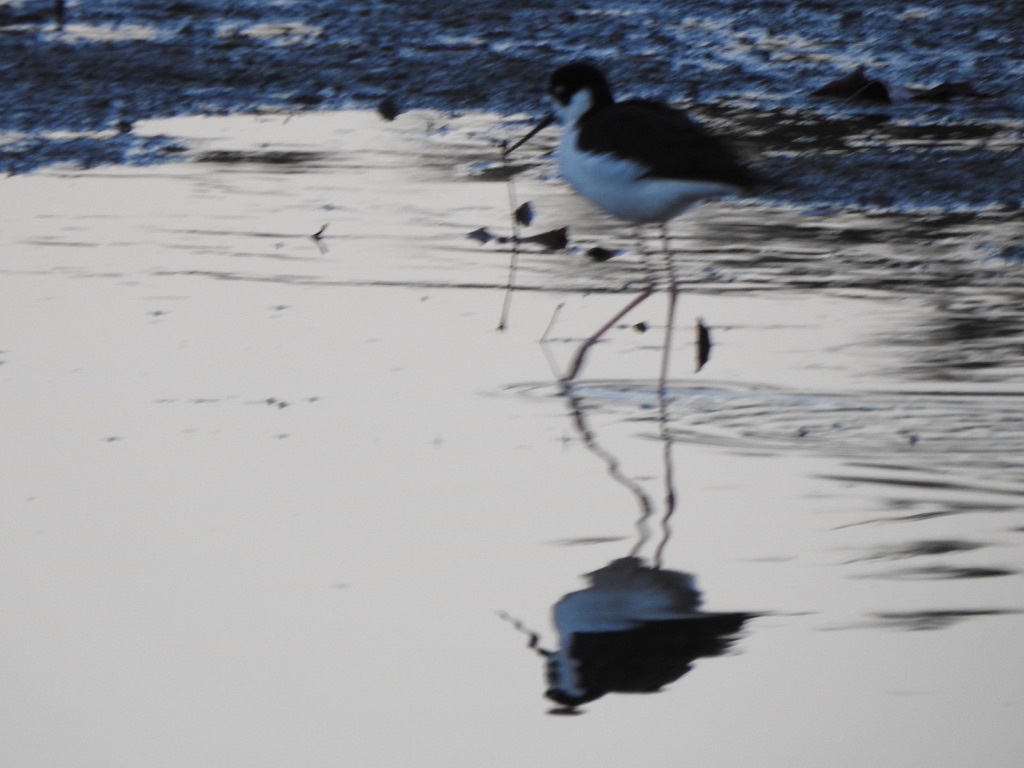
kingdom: Animalia
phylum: Chordata
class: Aves
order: Charadriiformes
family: Recurvirostridae
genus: Himantopus
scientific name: Himantopus mexicanus
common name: Black-necked stilt
